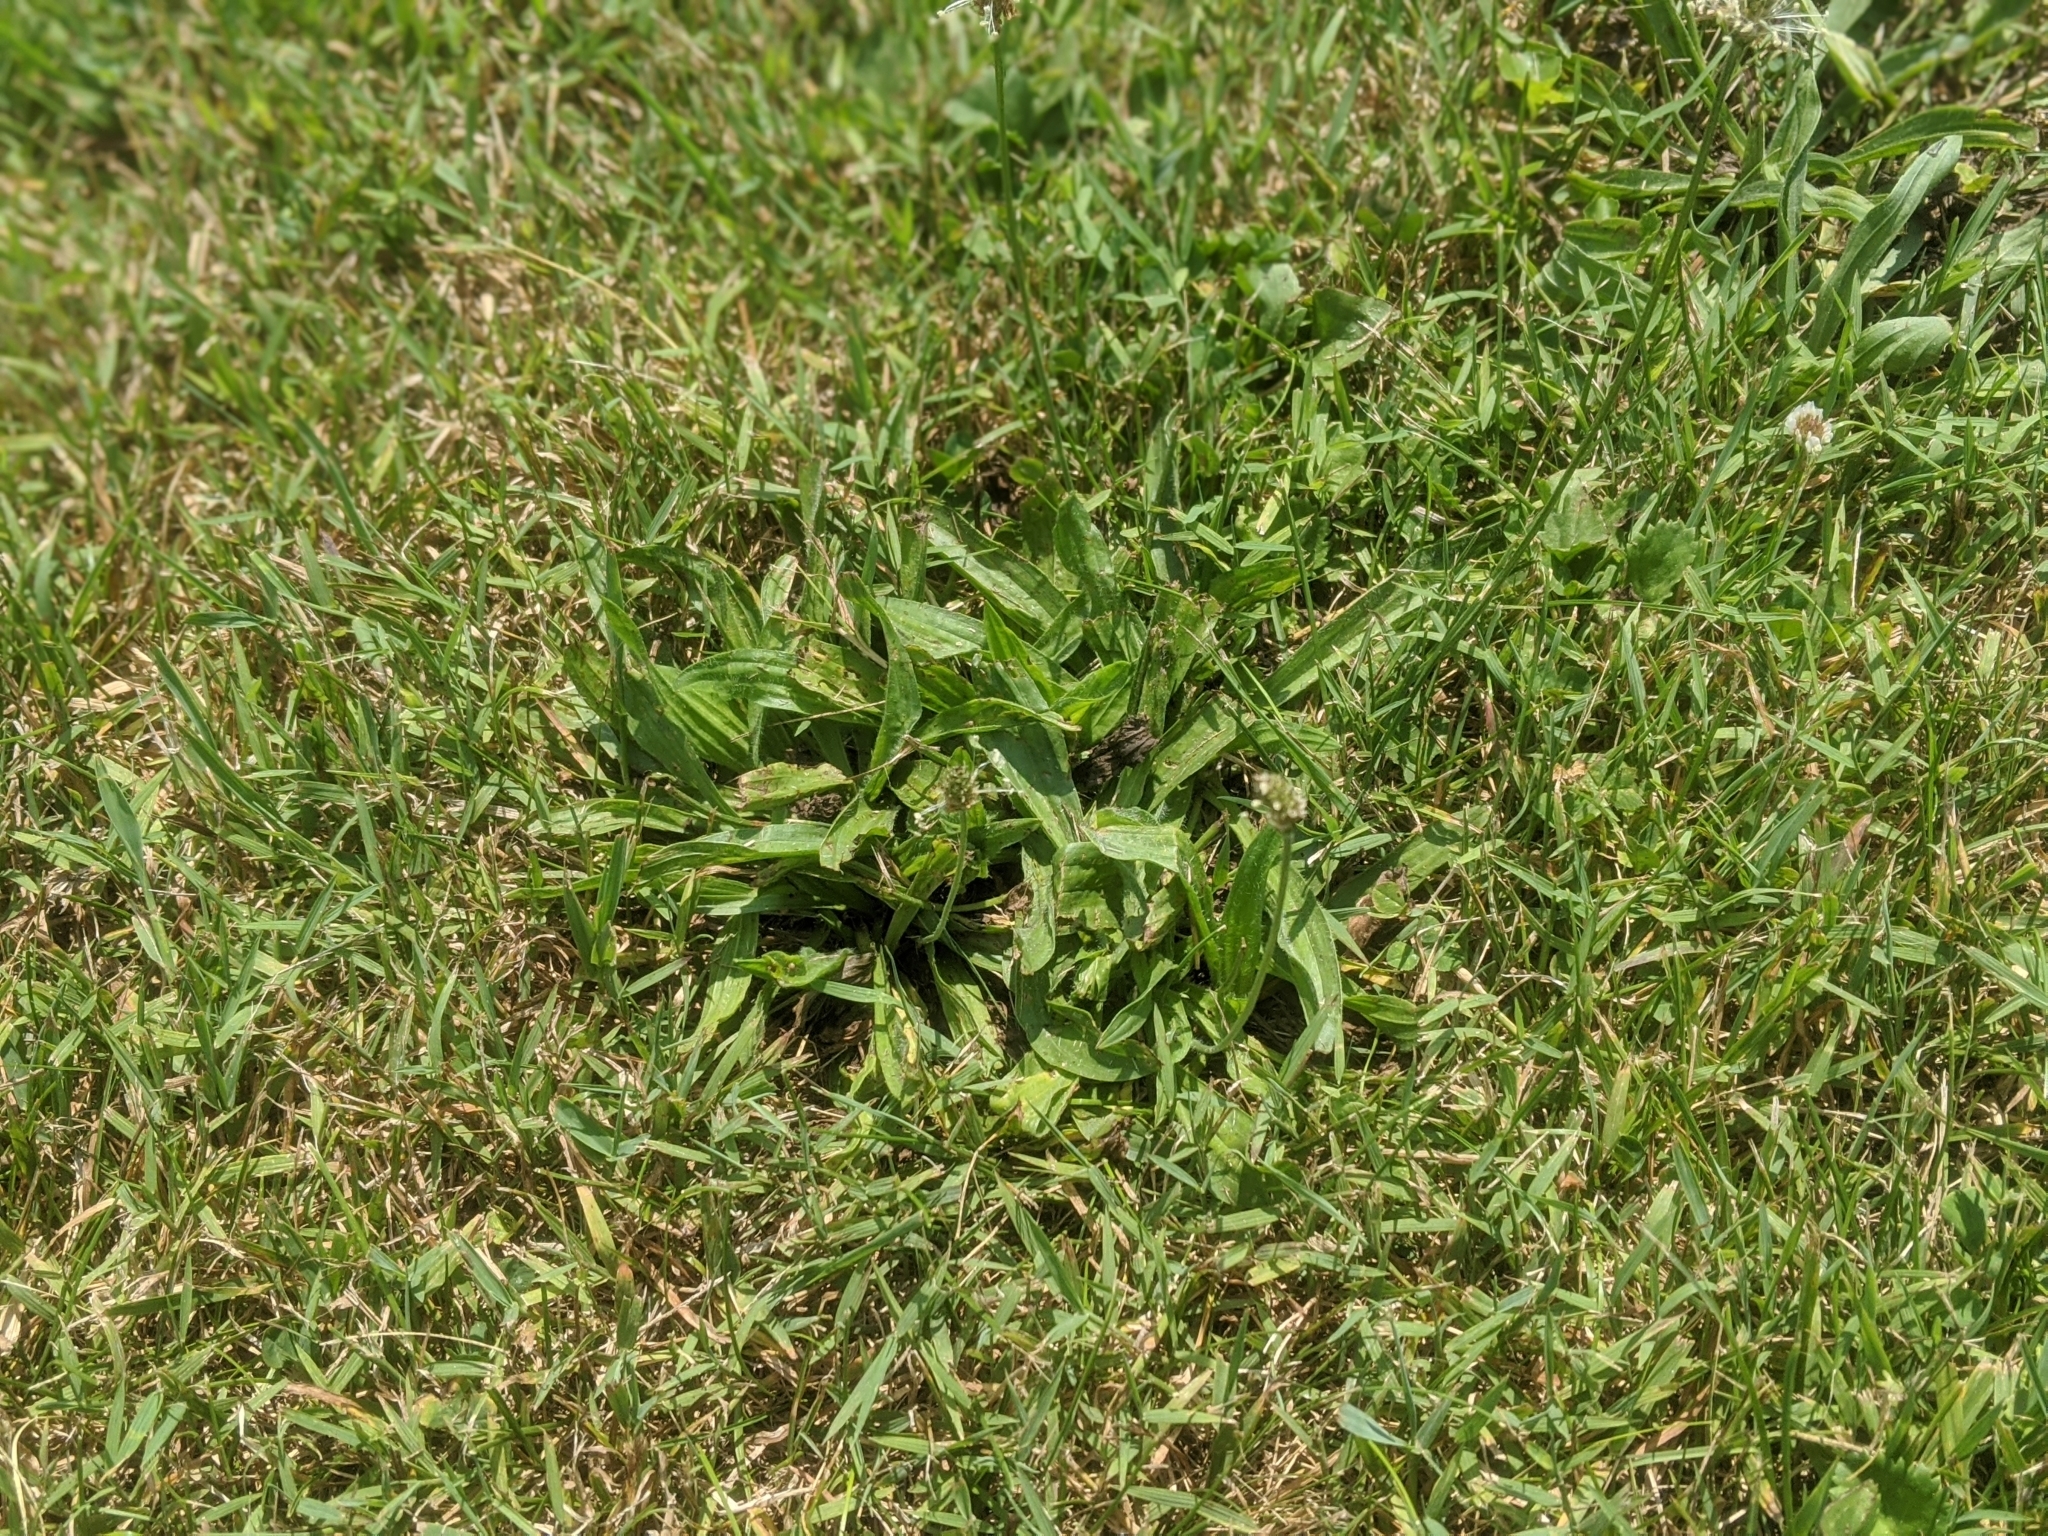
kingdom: Plantae
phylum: Tracheophyta
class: Magnoliopsida
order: Lamiales
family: Plantaginaceae
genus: Plantago
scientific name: Plantago lanceolata
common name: Ribwort plantain
